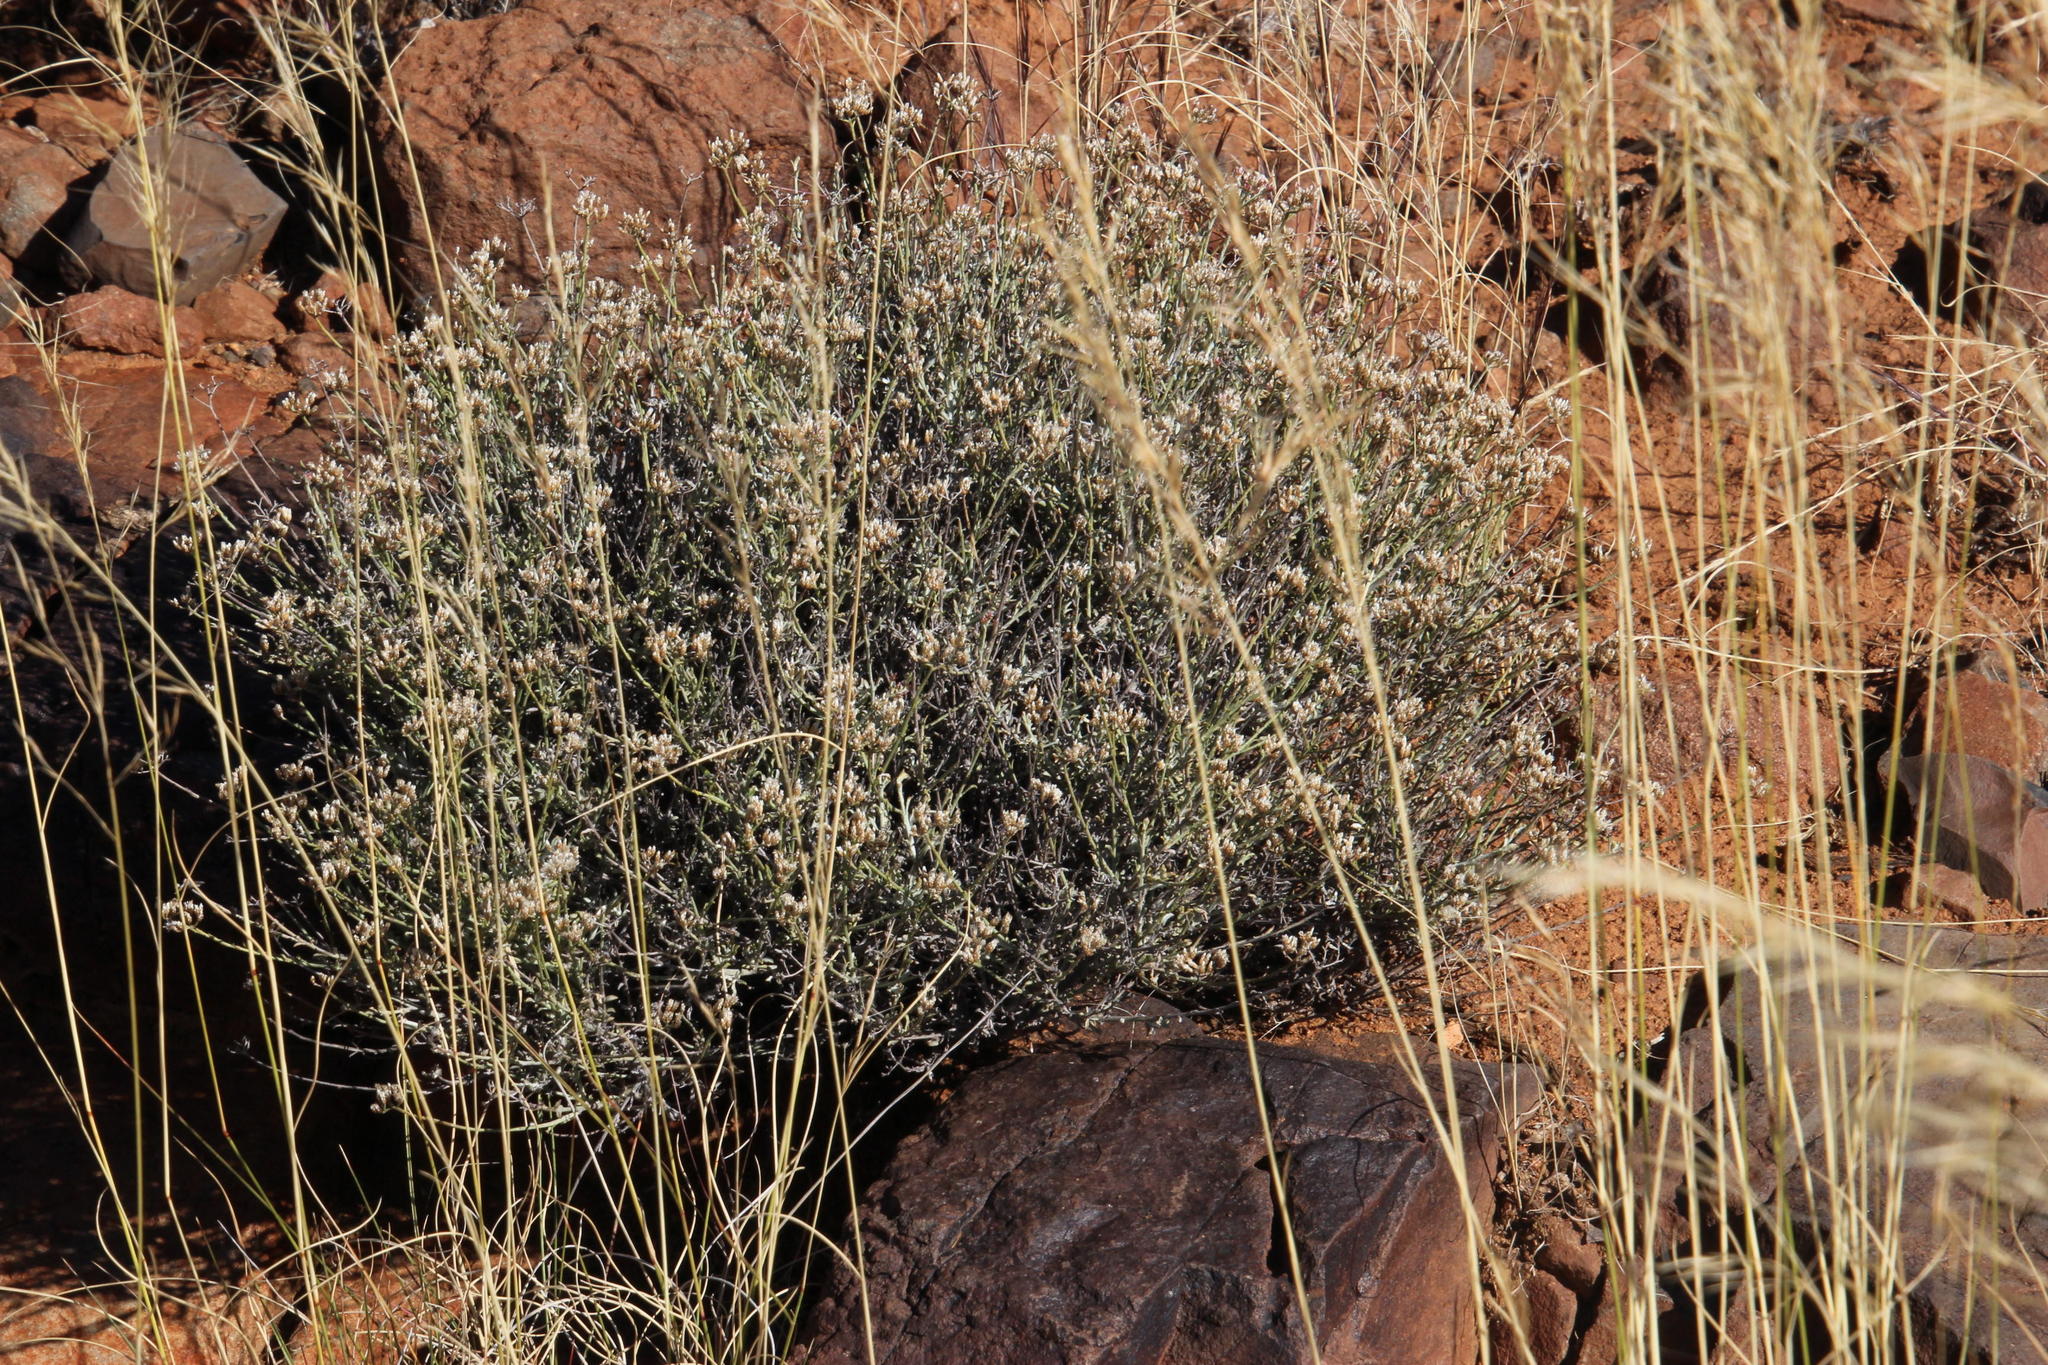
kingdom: Plantae
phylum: Tracheophyta
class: Magnoliopsida
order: Asterales
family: Asteraceae
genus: Helichrysum
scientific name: Helichrysum zeyheri
